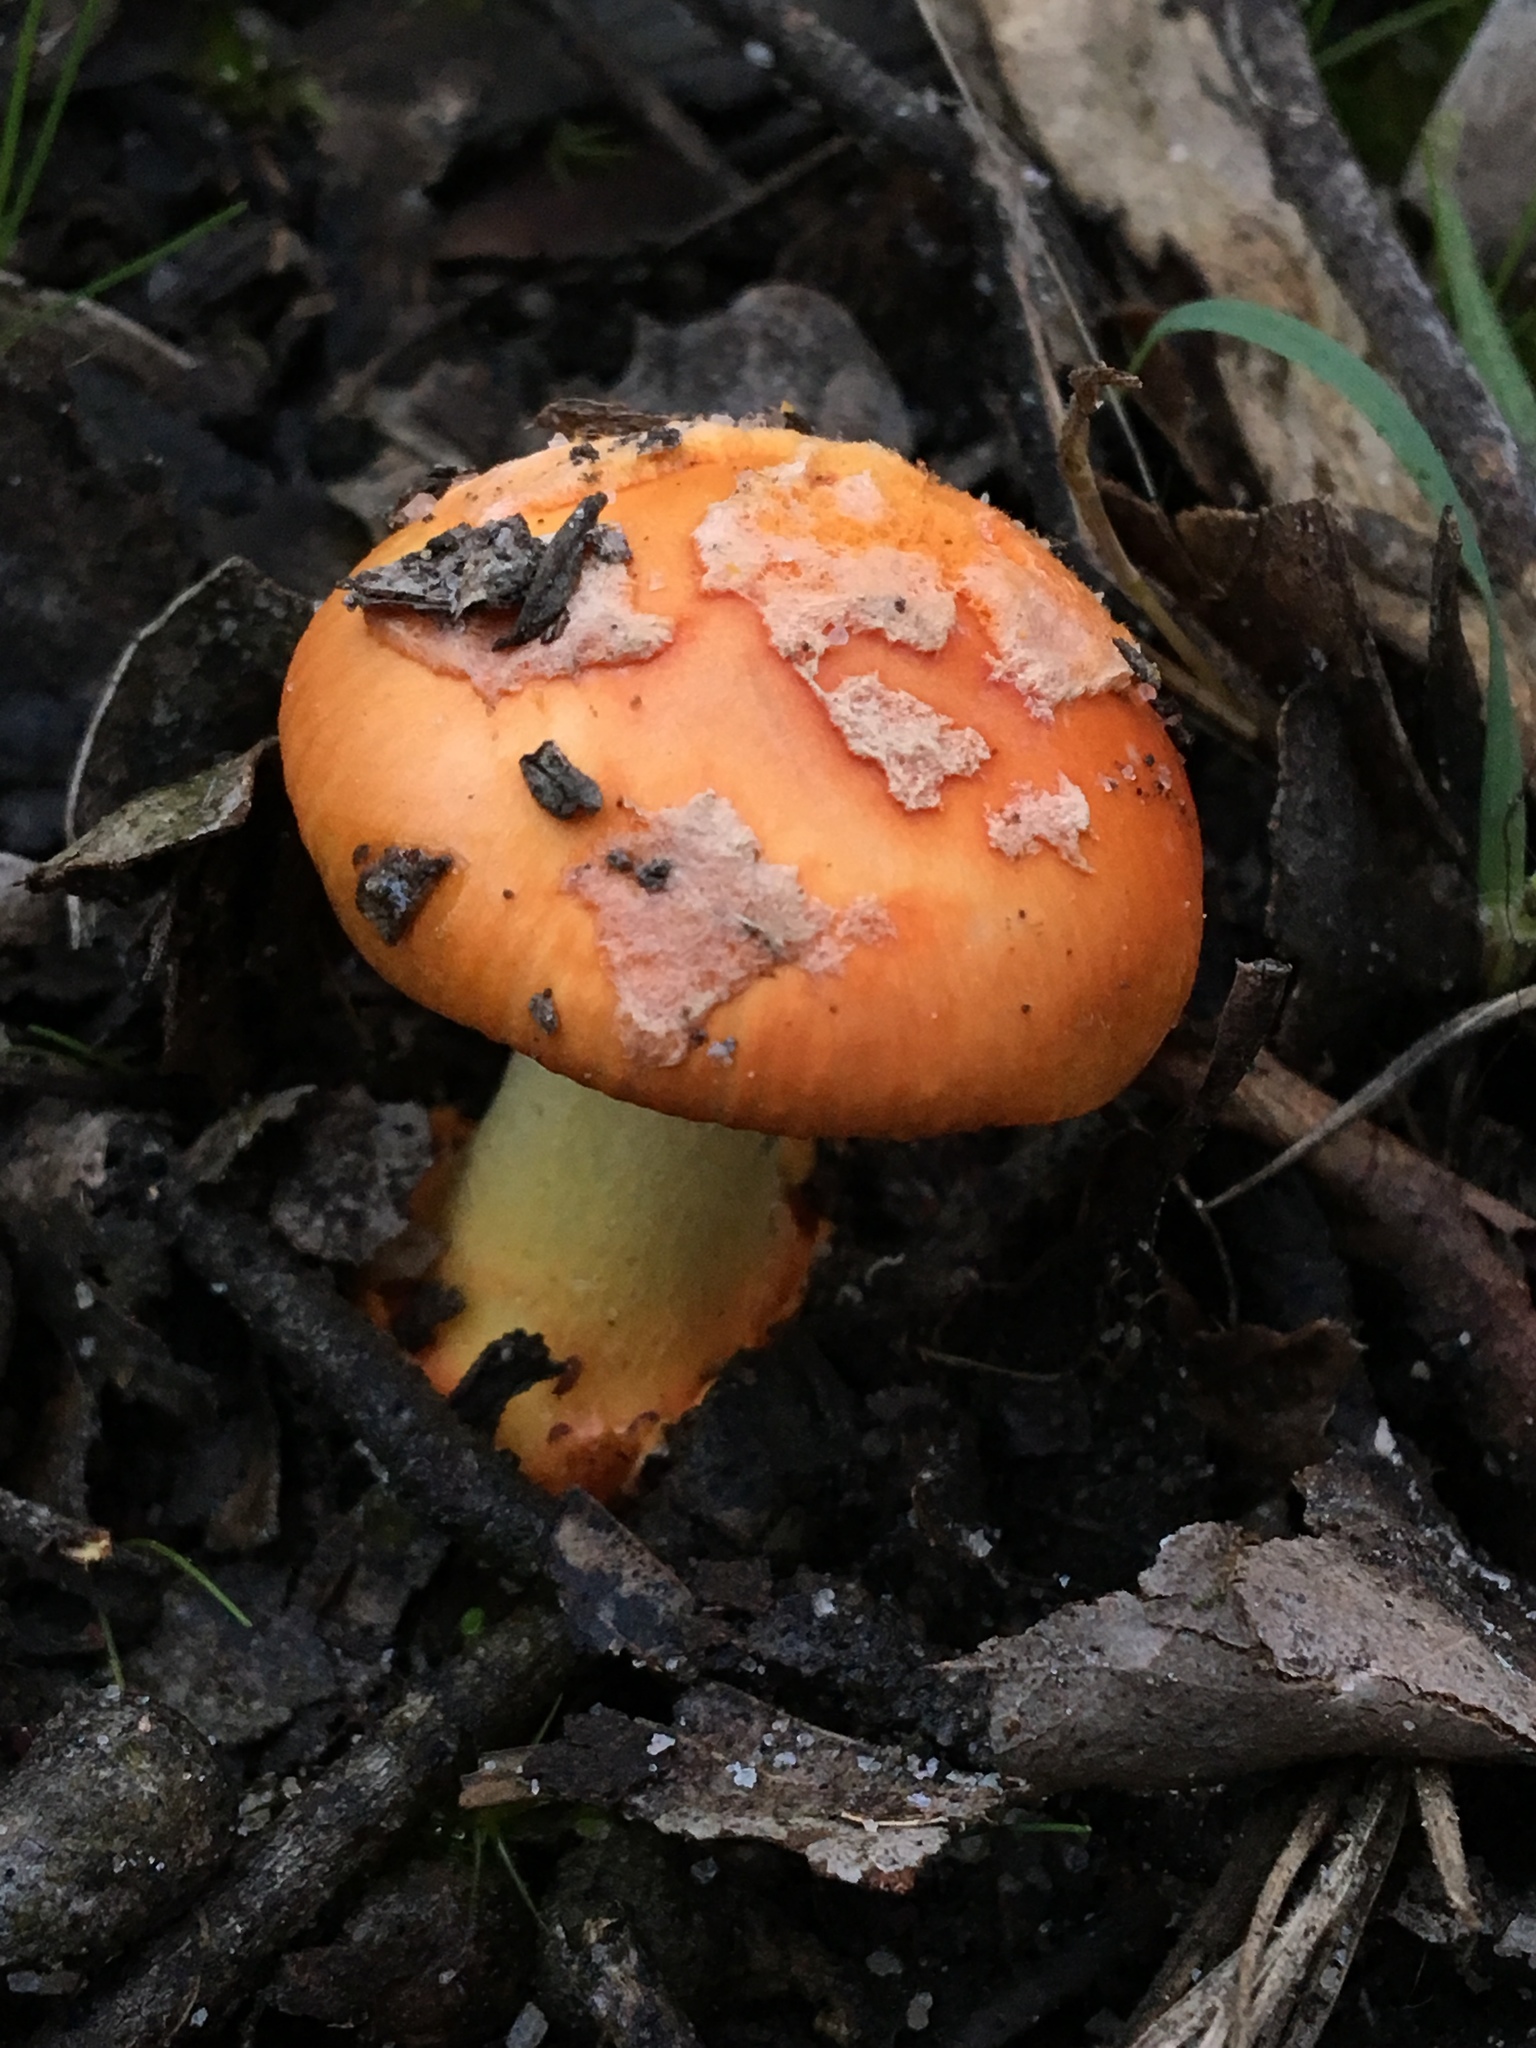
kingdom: Fungi
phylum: Basidiomycota
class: Agaricomycetes
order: Agaricales
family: Amanitaceae
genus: Amanita
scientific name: Amanita xanthocephala
